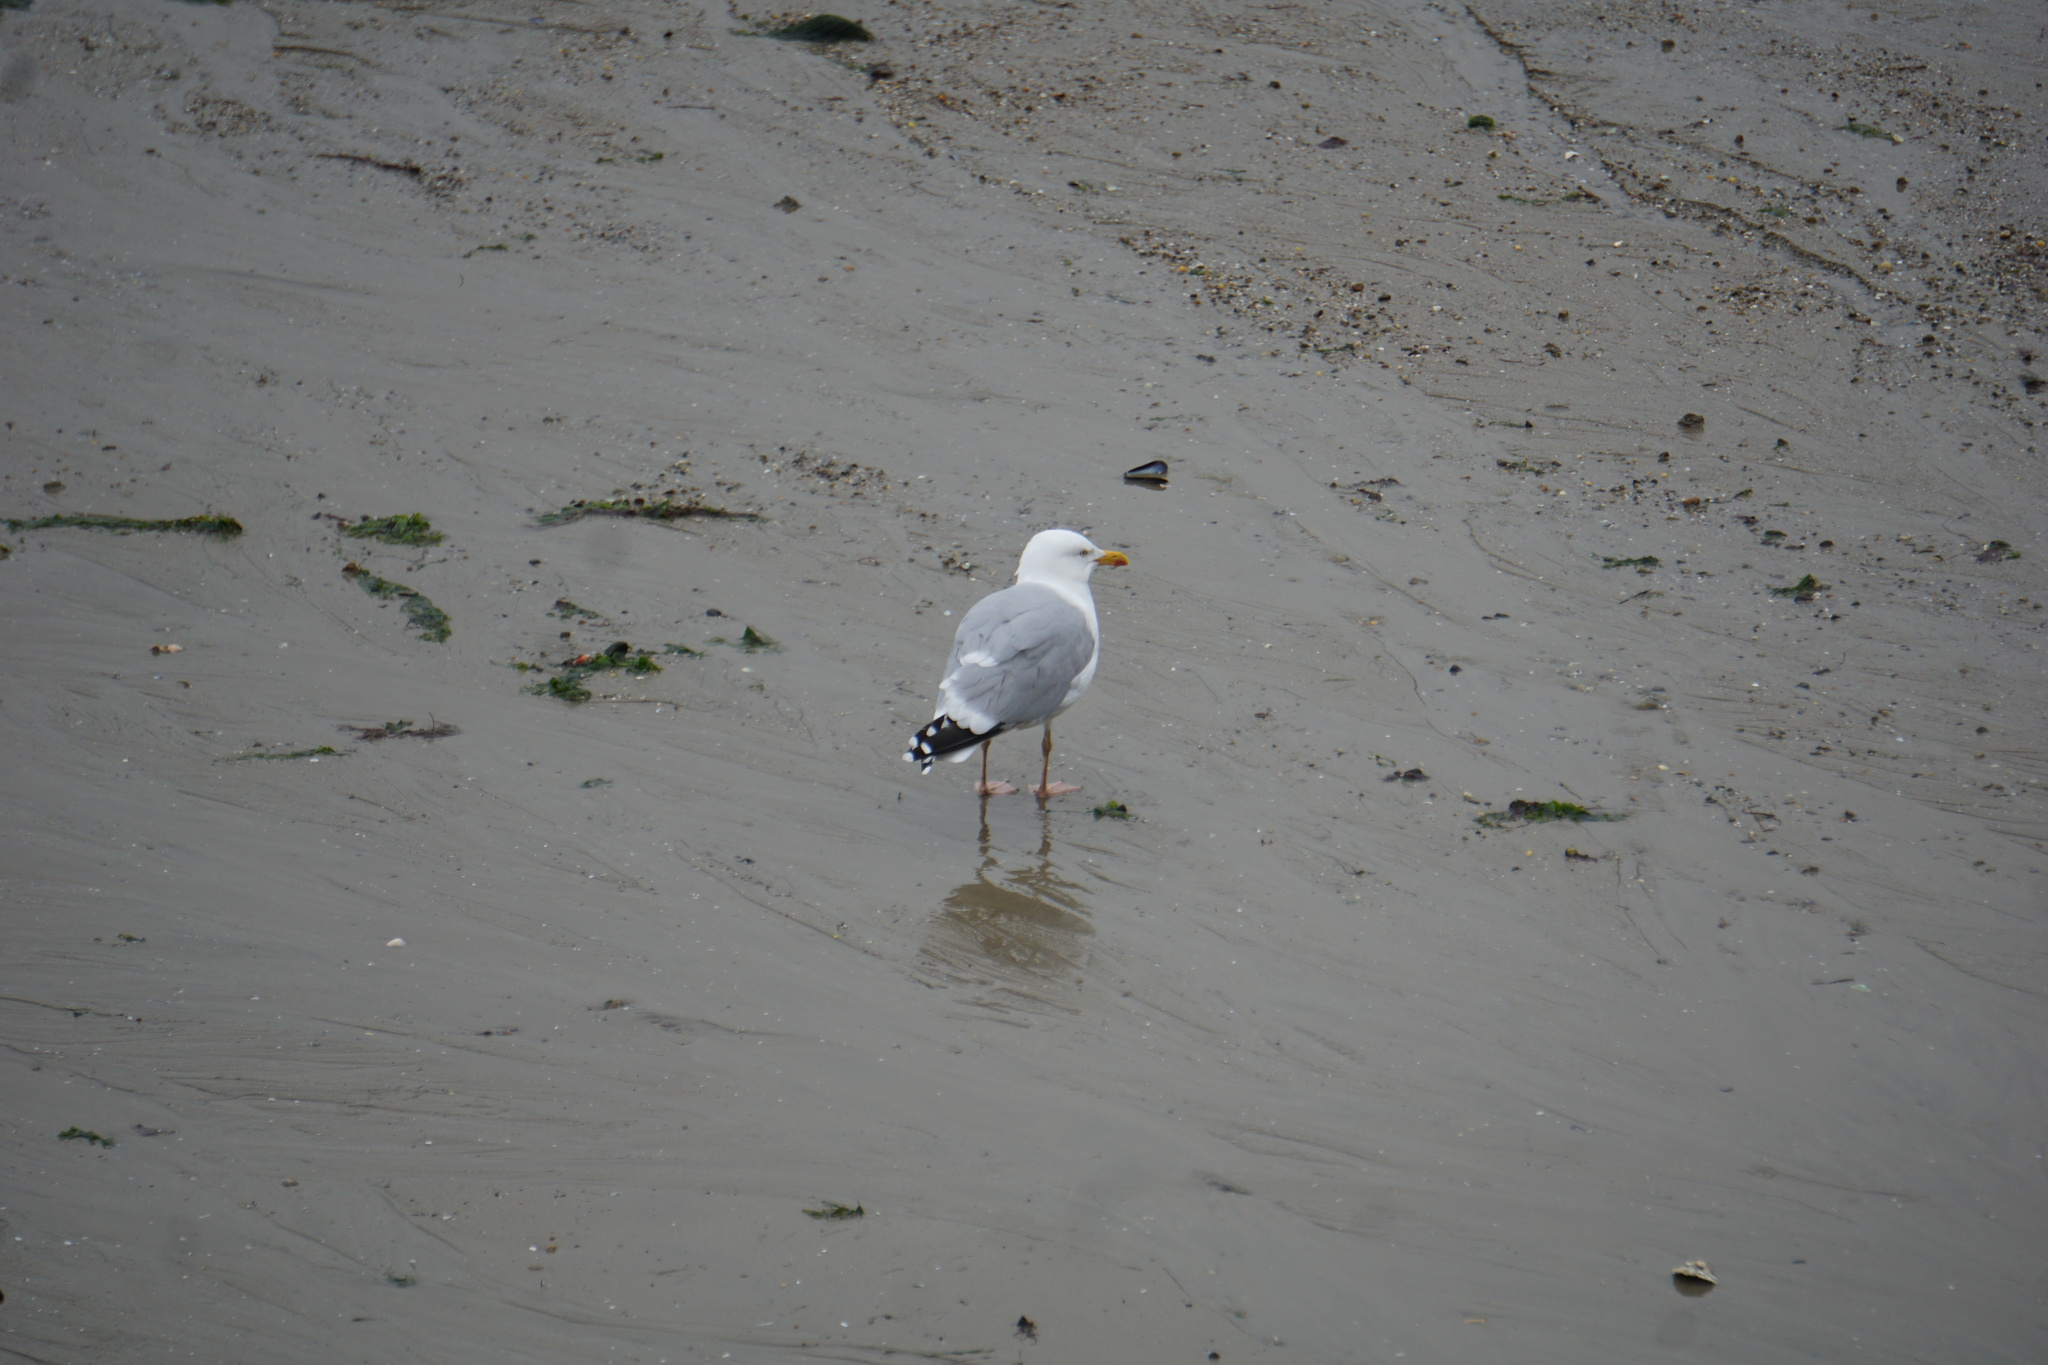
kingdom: Animalia
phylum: Chordata
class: Aves
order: Charadriiformes
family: Laridae
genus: Larus
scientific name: Larus argentatus
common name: Herring gull
